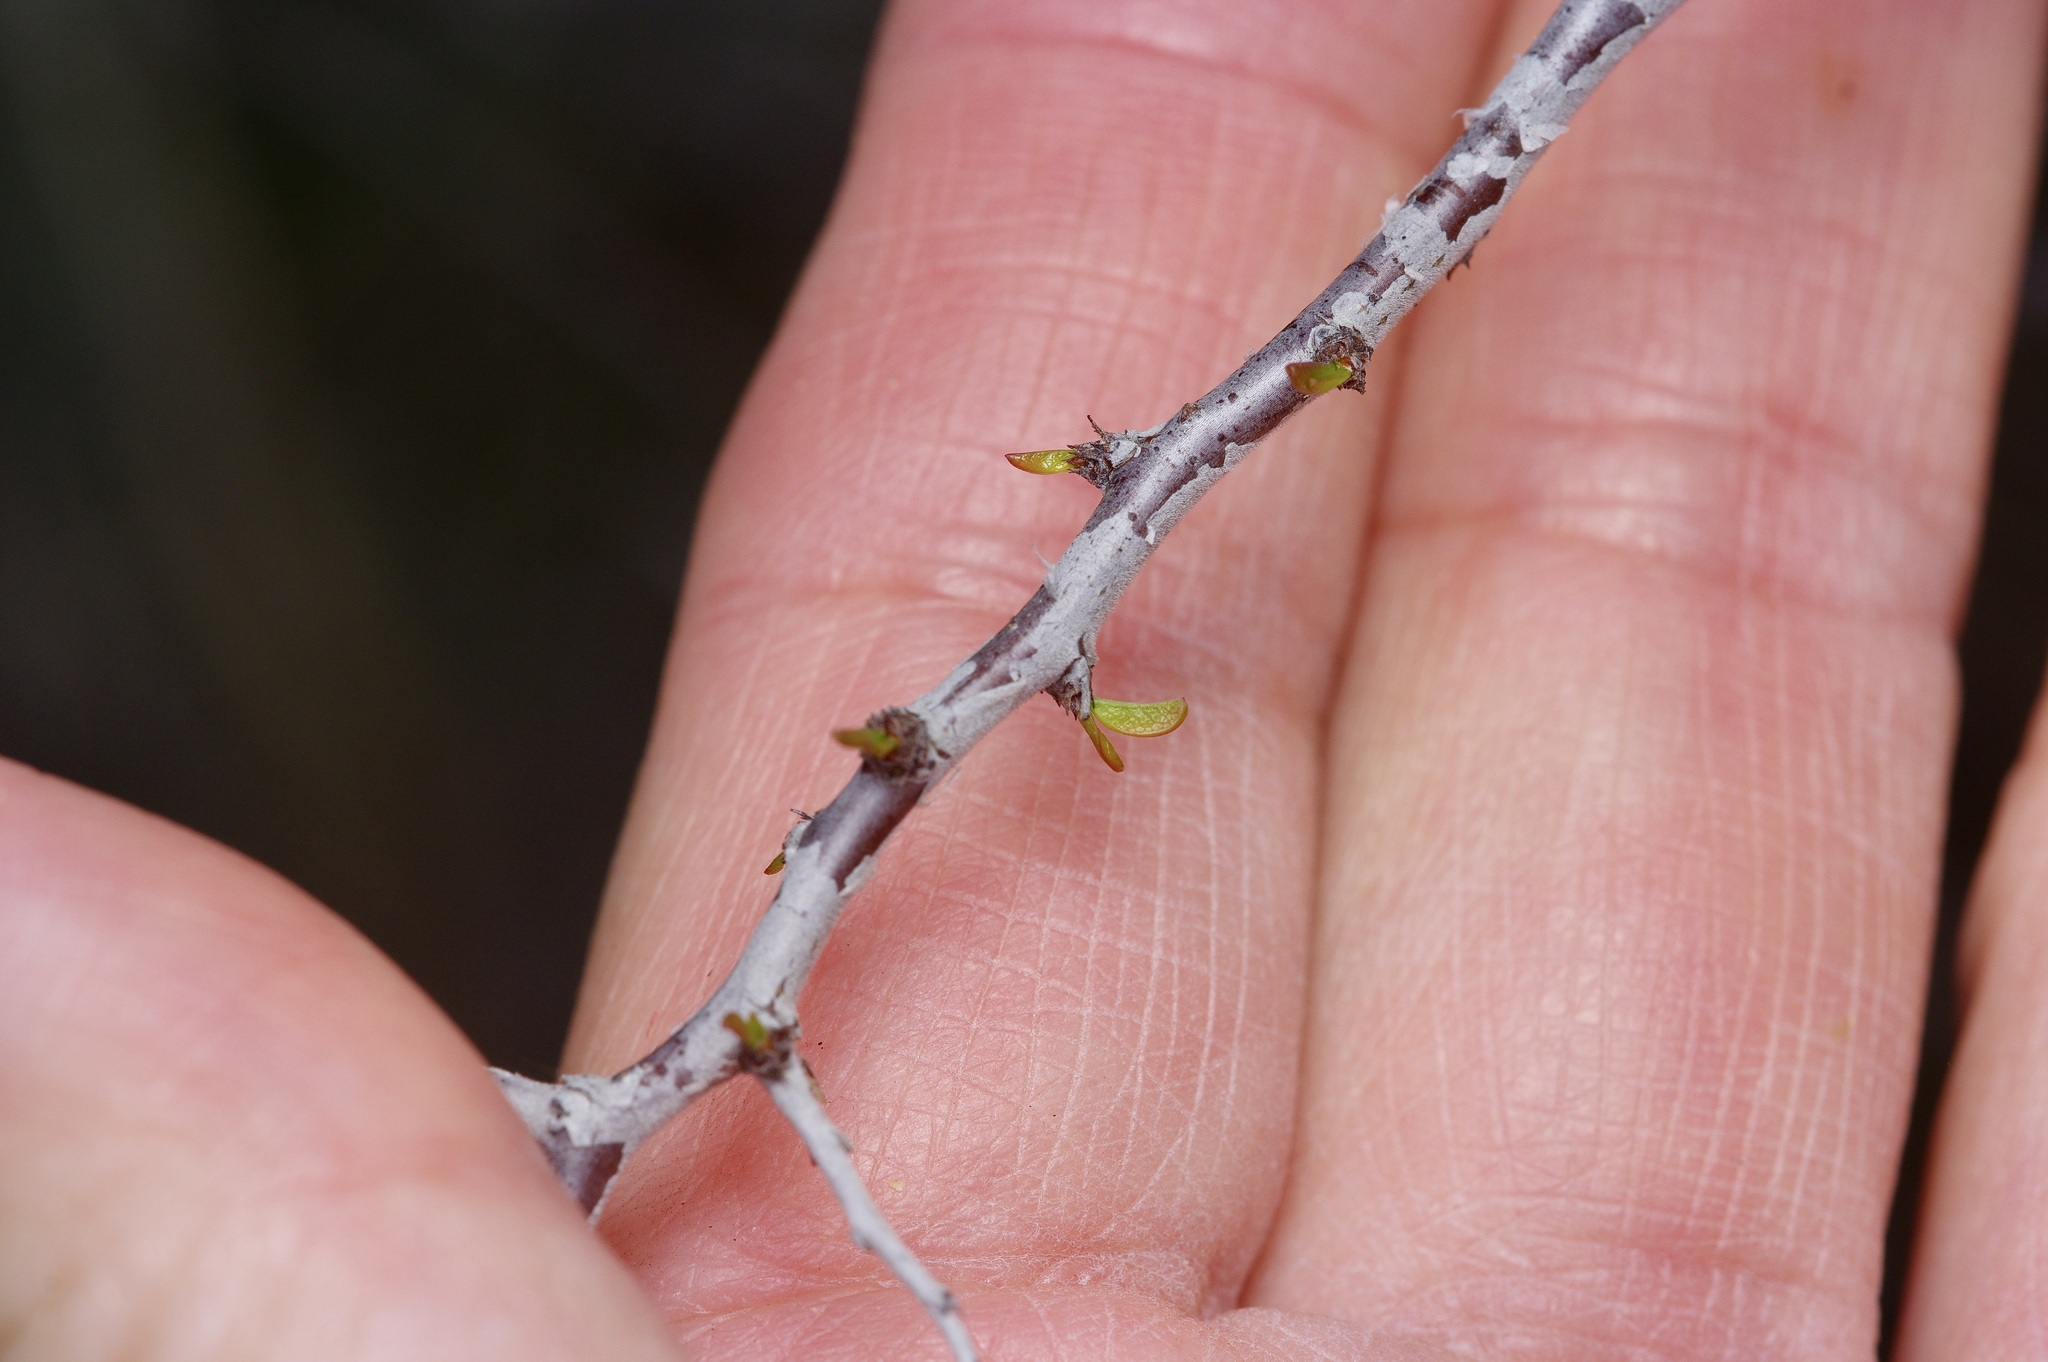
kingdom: Plantae
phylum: Tracheophyta
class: Magnoliopsida
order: Rosales
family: Rosaceae
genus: Prunus
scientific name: Prunus minutiflora
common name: Texas almond
